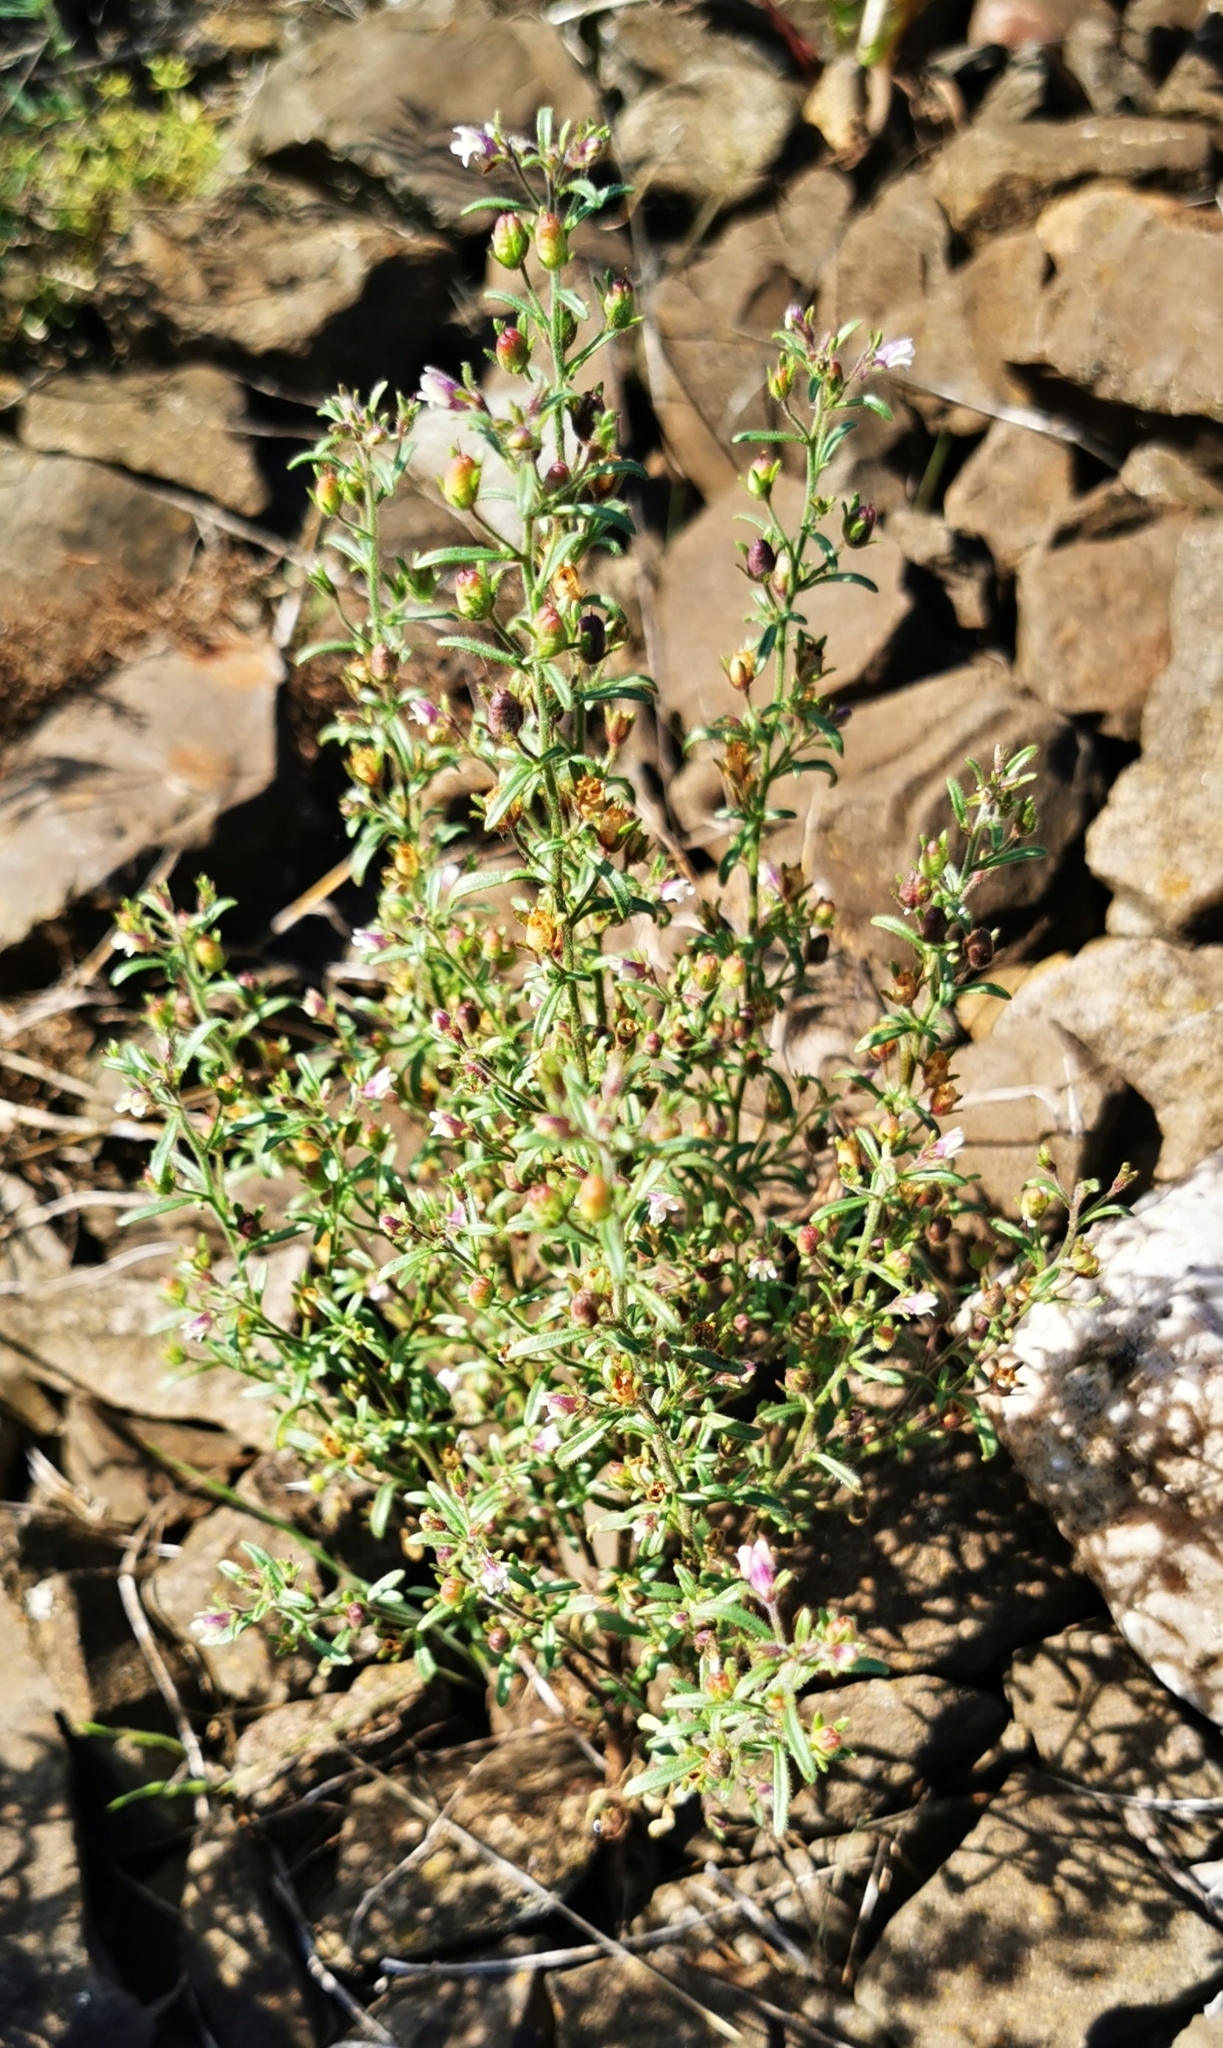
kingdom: Plantae
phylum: Tracheophyta
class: Magnoliopsida
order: Lamiales
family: Plantaginaceae
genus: Chaenorhinum
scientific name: Chaenorhinum minus
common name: Dwarf snapdragon
